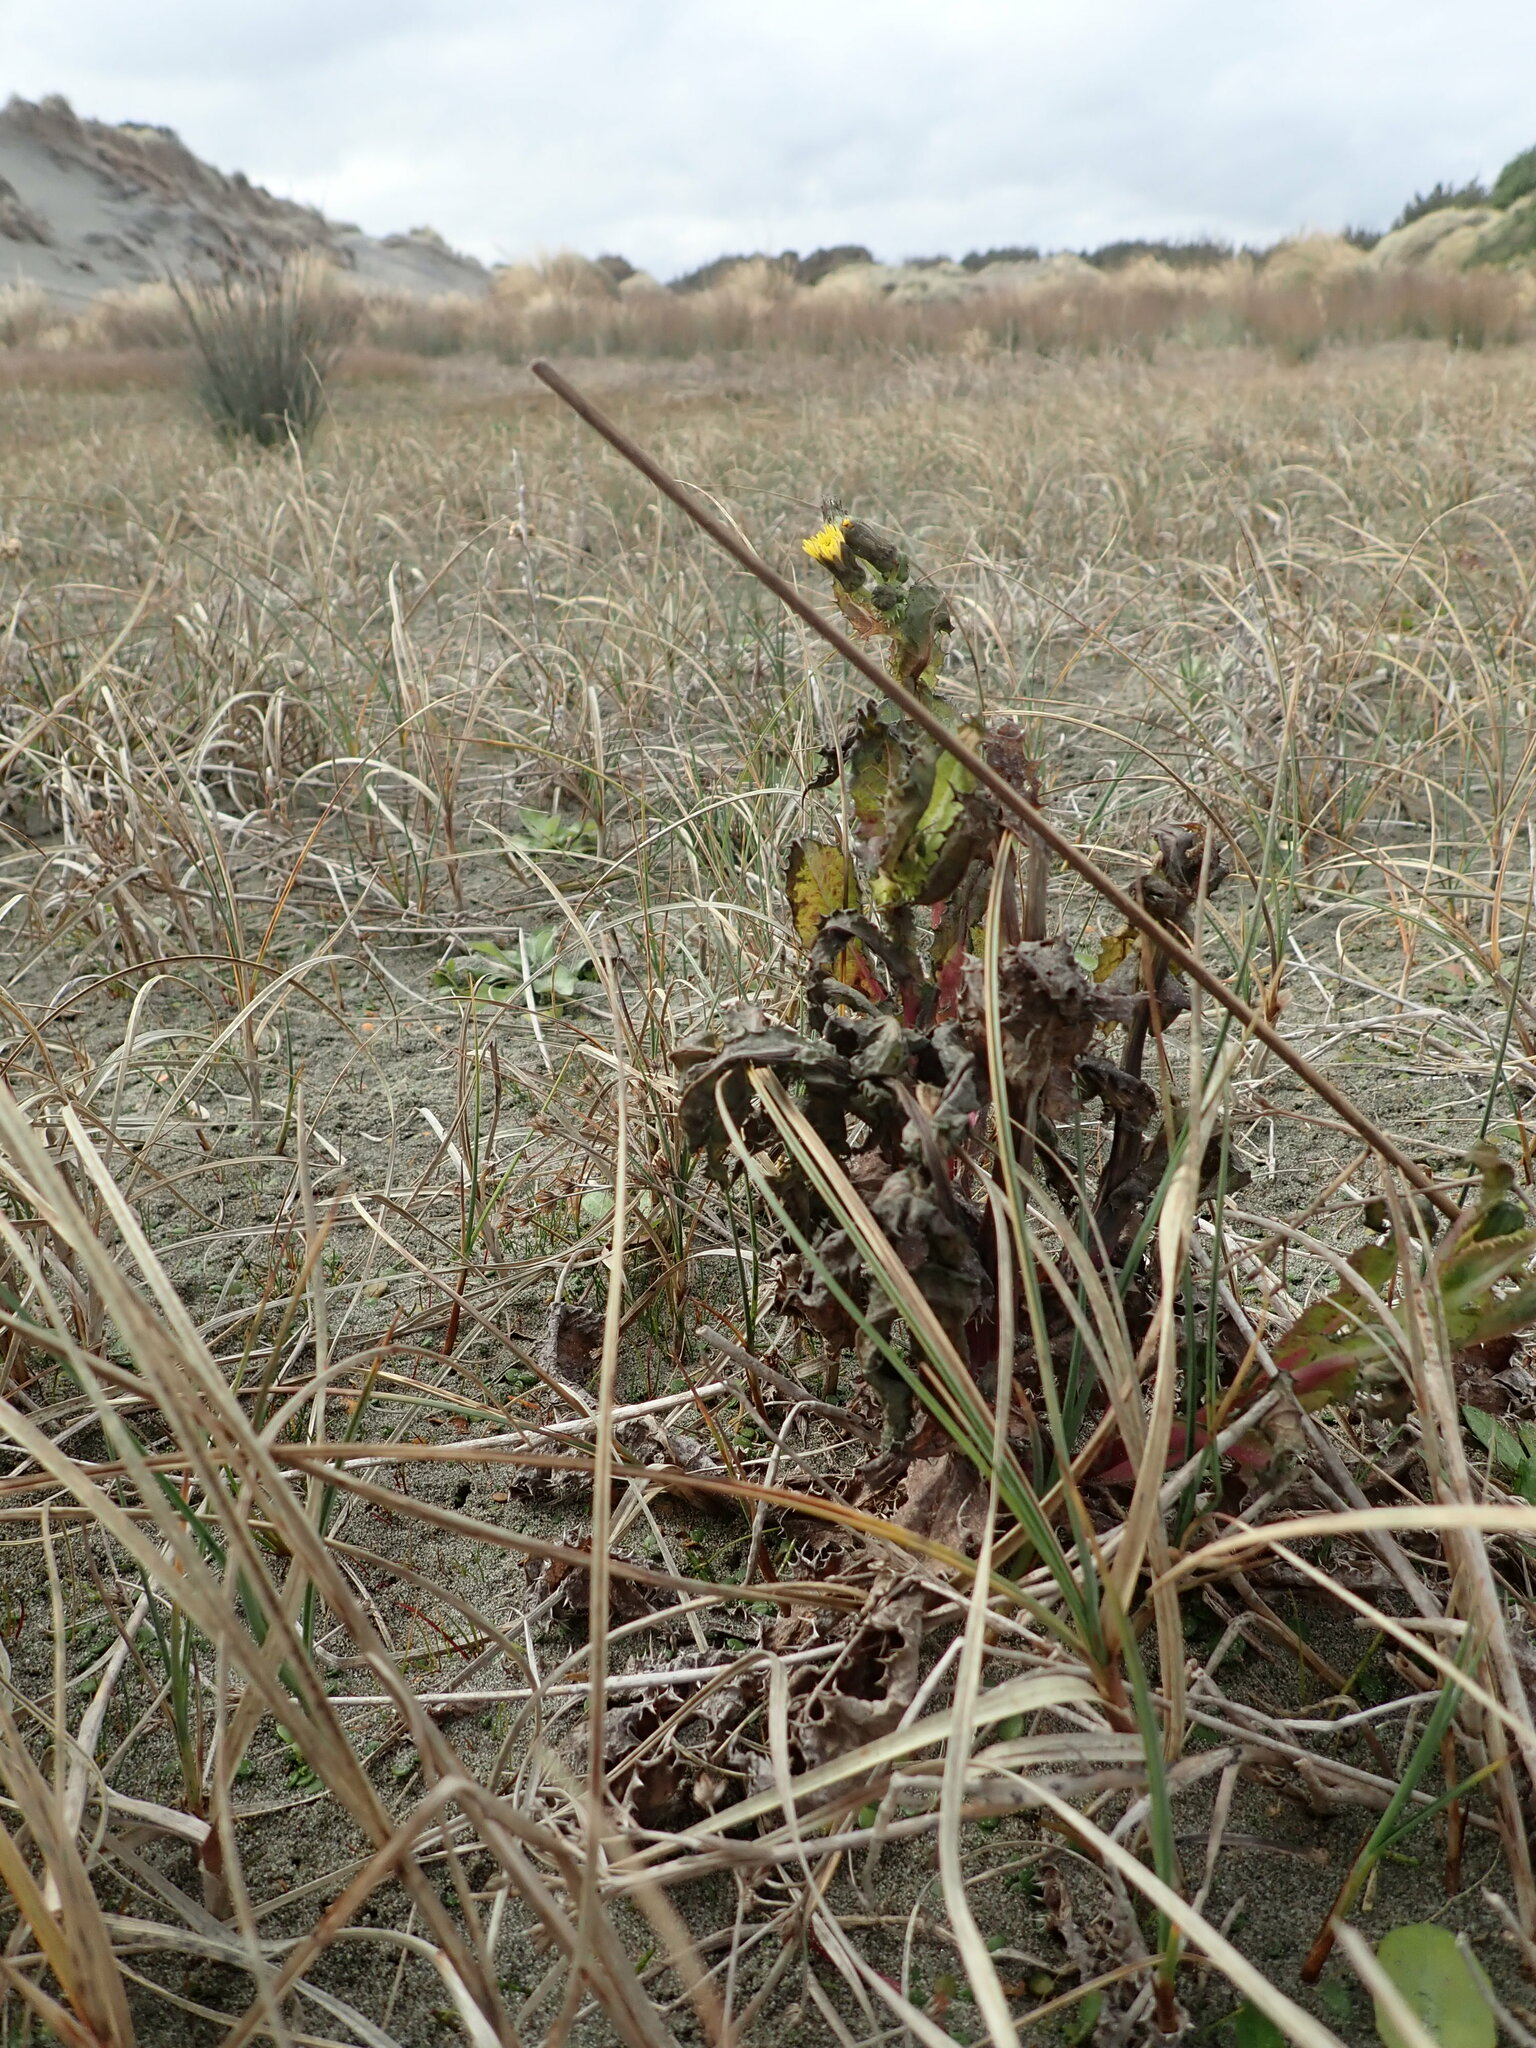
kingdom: Plantae
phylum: Tracheophyta
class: Magnoliopsida
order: Asterales
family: Asteraceae
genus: Sonchus
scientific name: Sonchus oleraceus
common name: Common sowthistle
